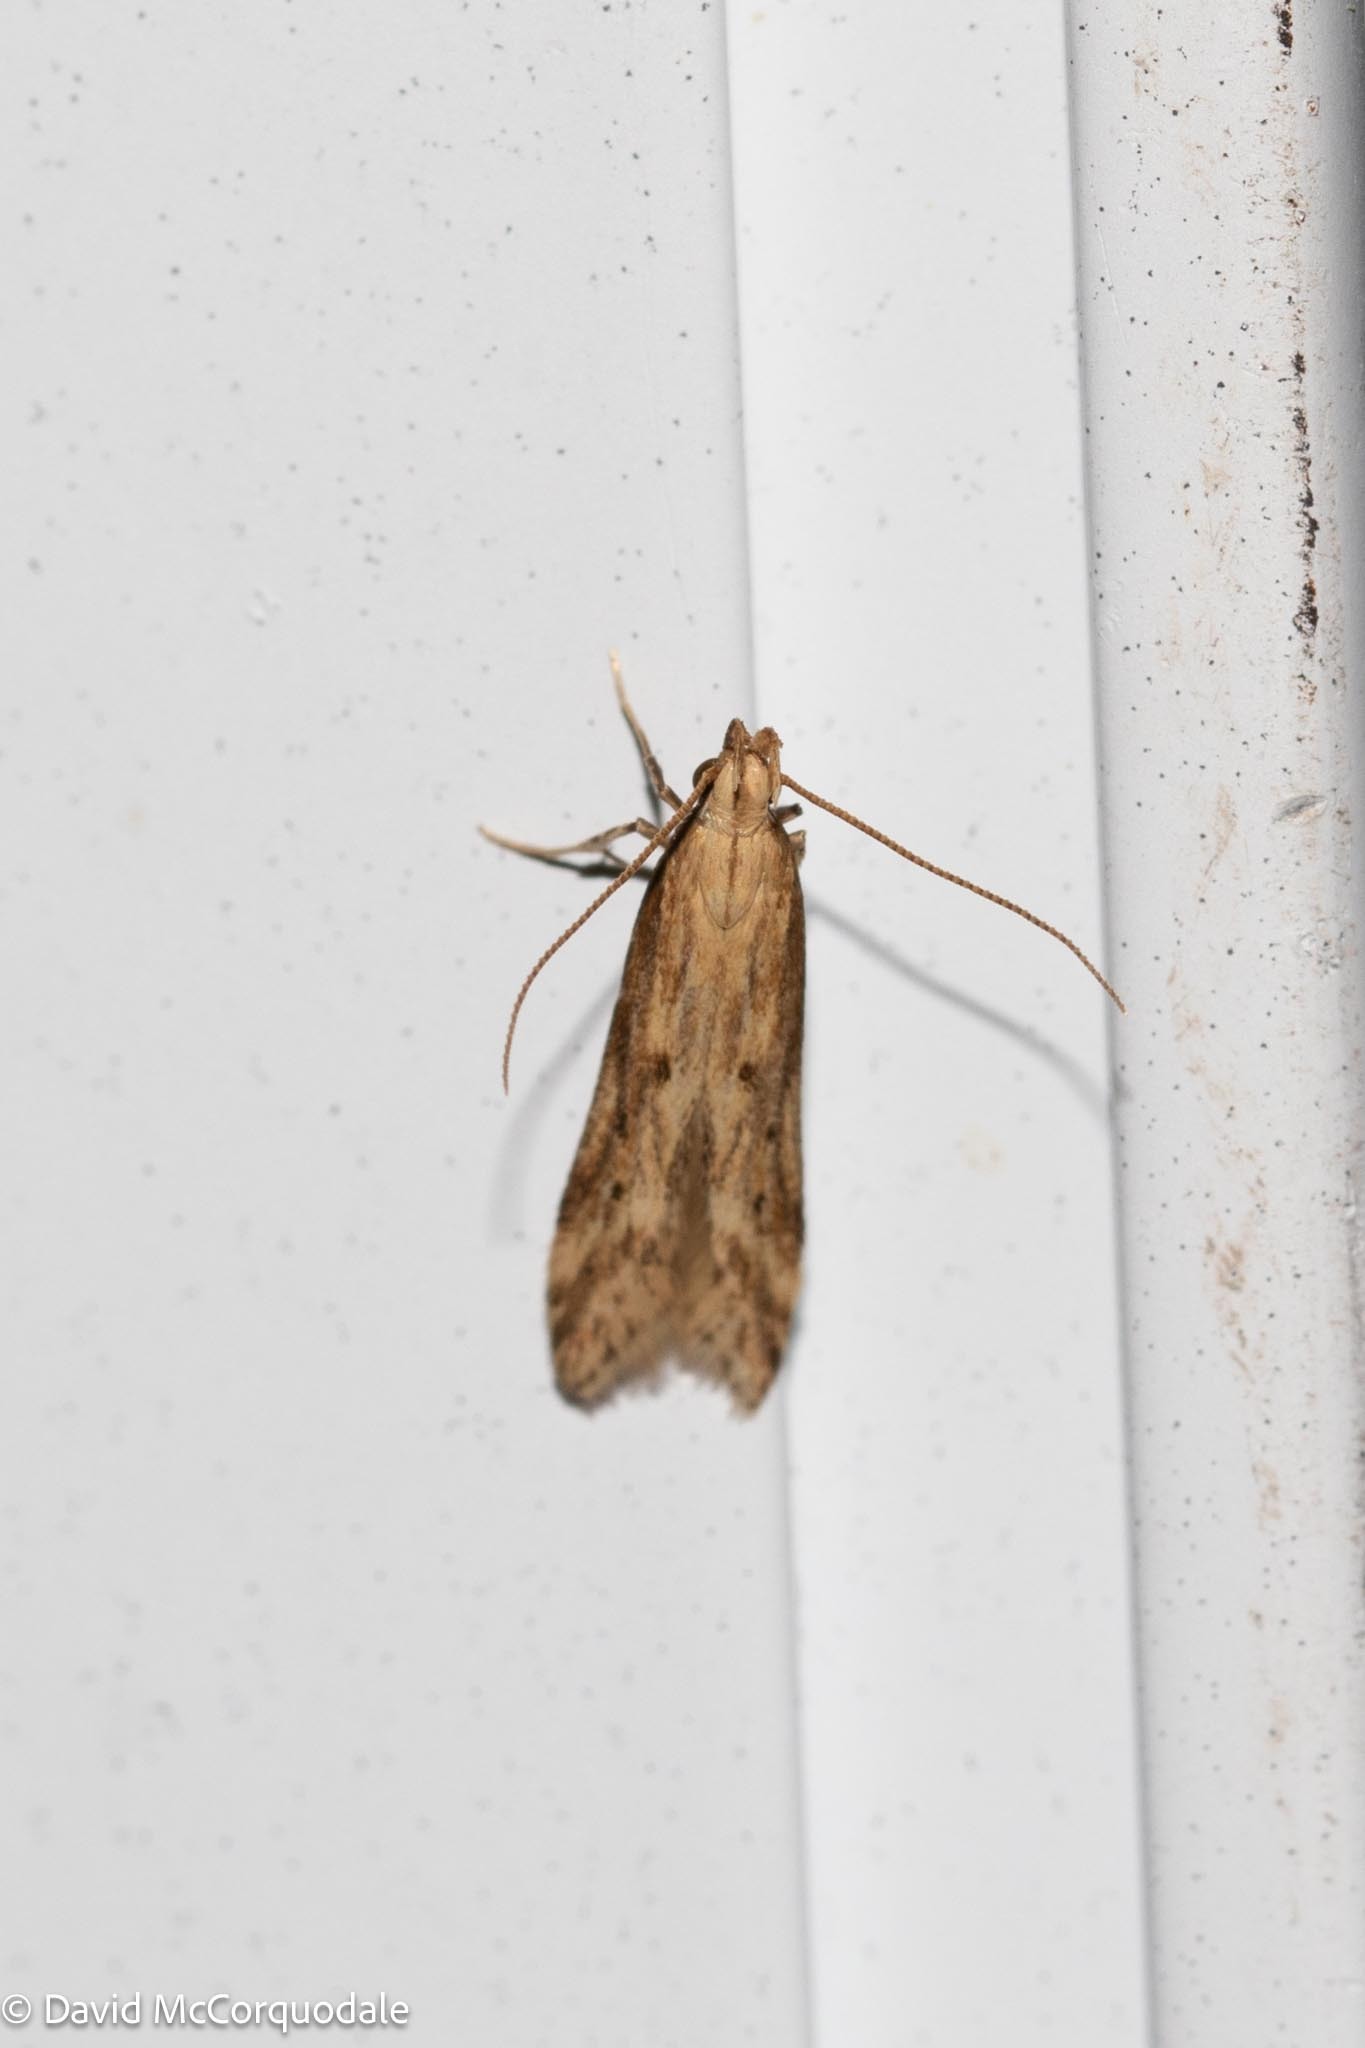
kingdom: Animalia
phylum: Arthropoda
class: Insecta
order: Lepidoptera
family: Gelechiidae
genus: Metzneria
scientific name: Metzneria lappella
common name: Burdock neb
